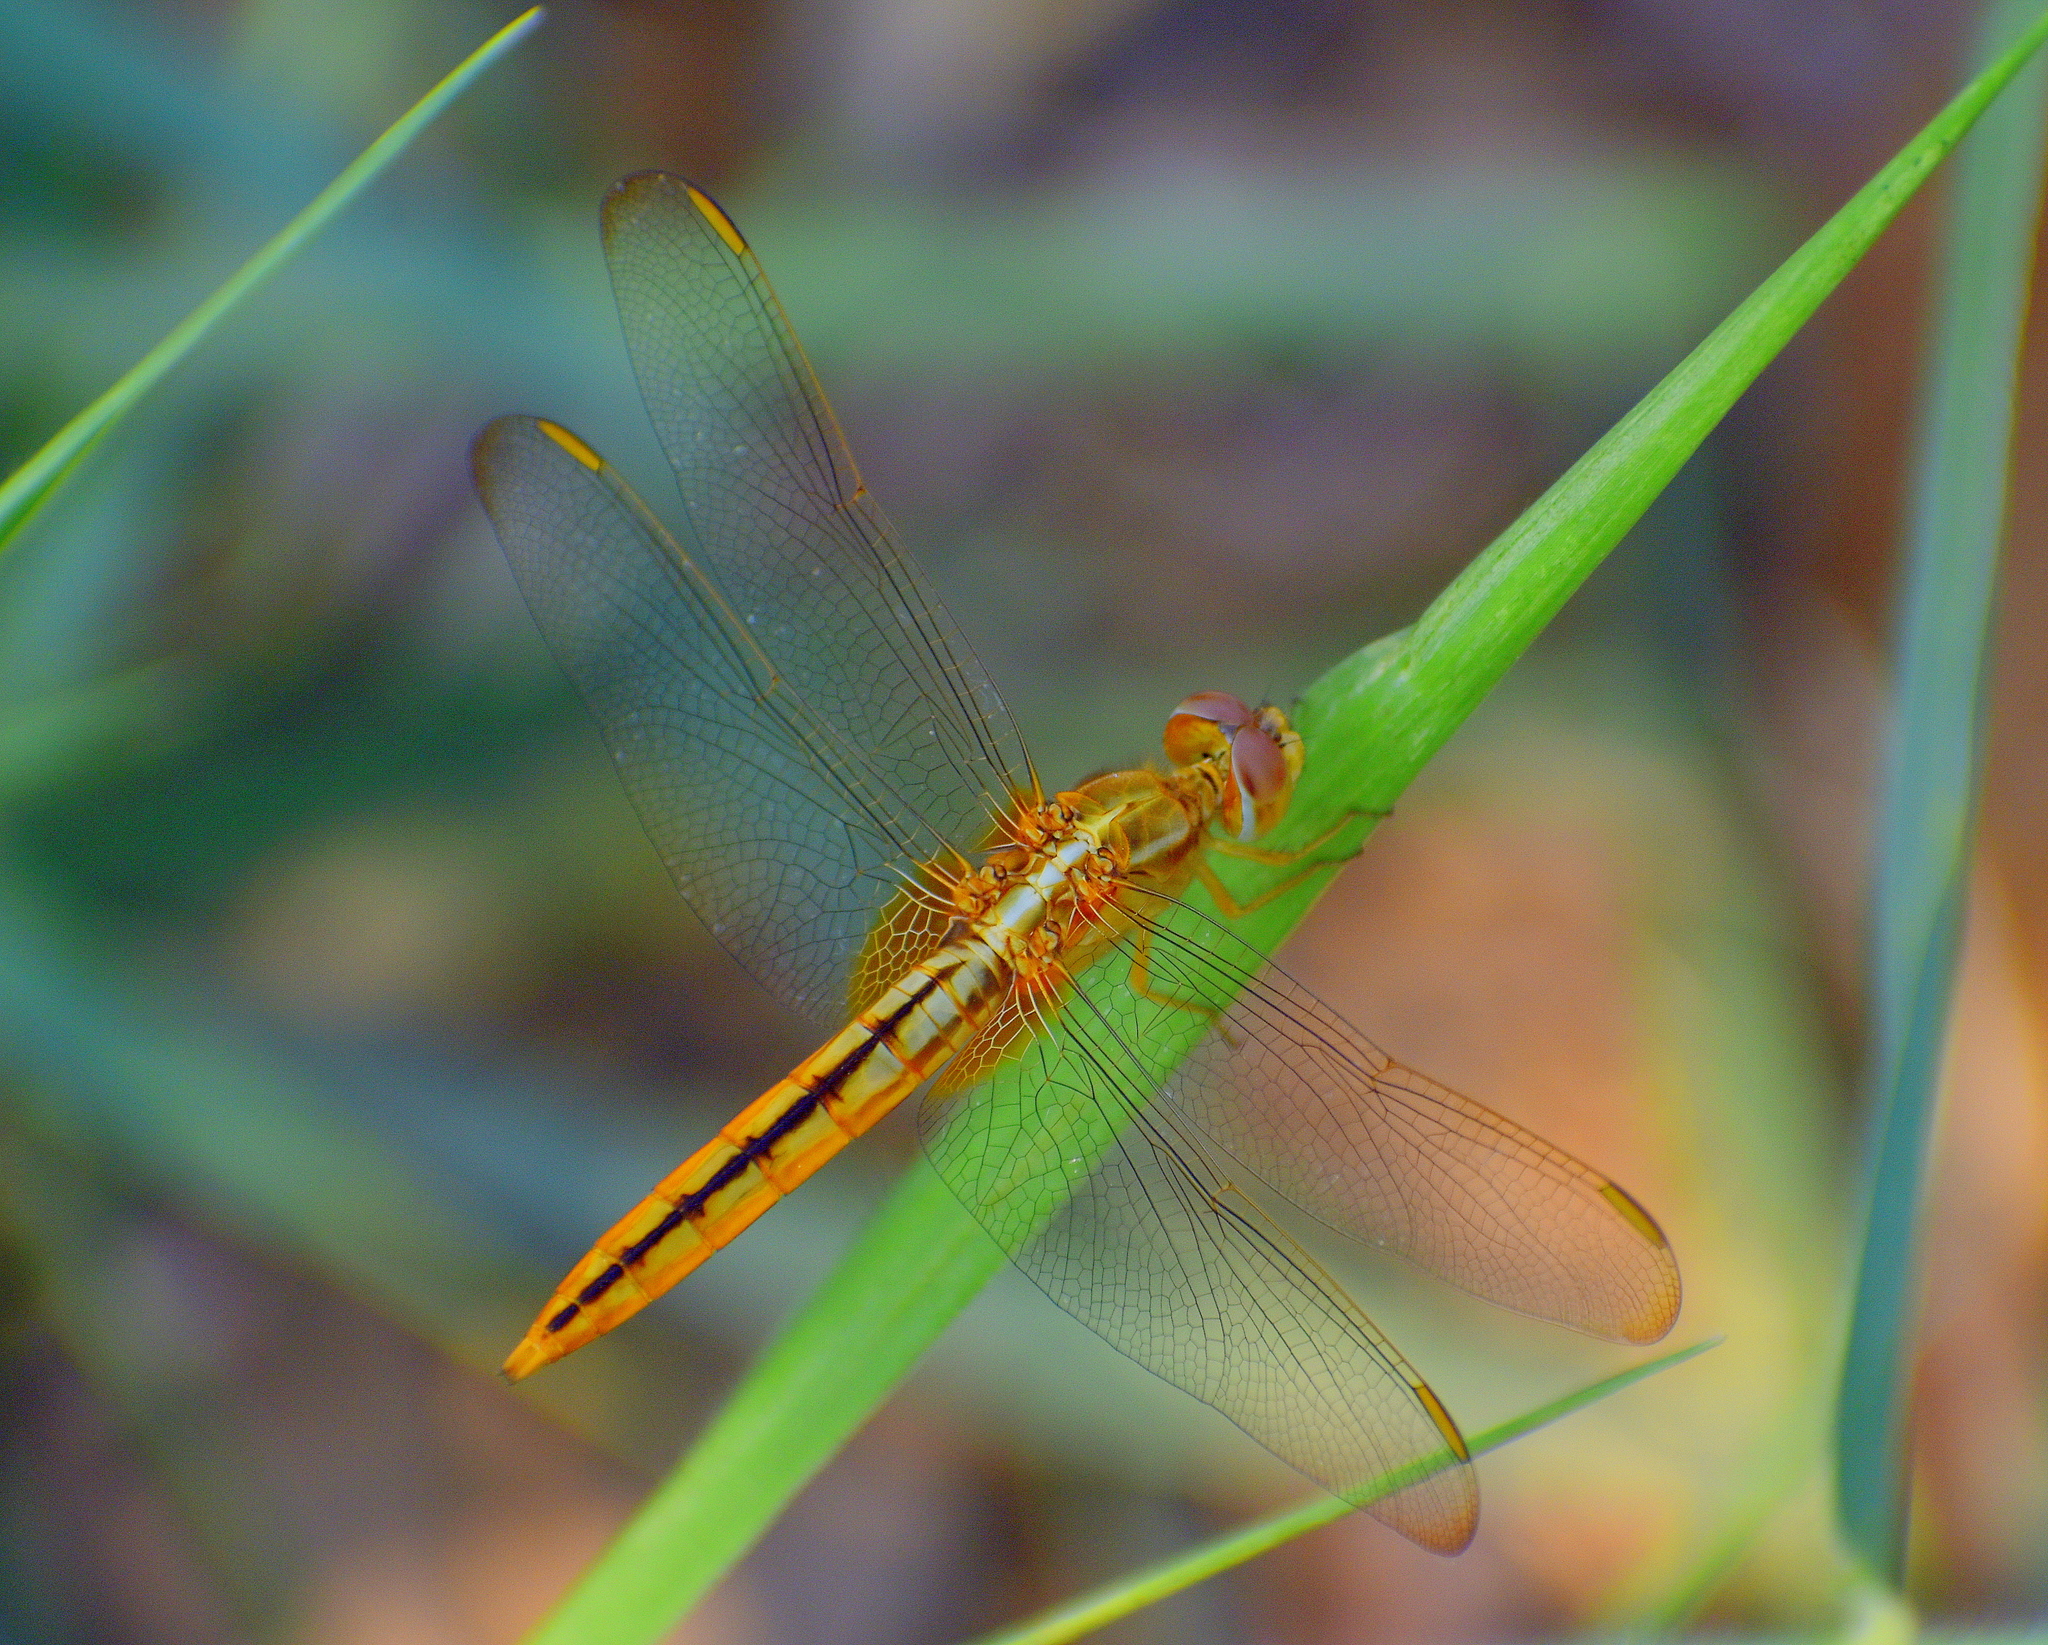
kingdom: Animalia
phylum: Arthropoda
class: Insecta
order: Odonata
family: Libellulidae
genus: Crocothemis
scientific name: Crocothemis servilia
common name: Scarlet skimmer
